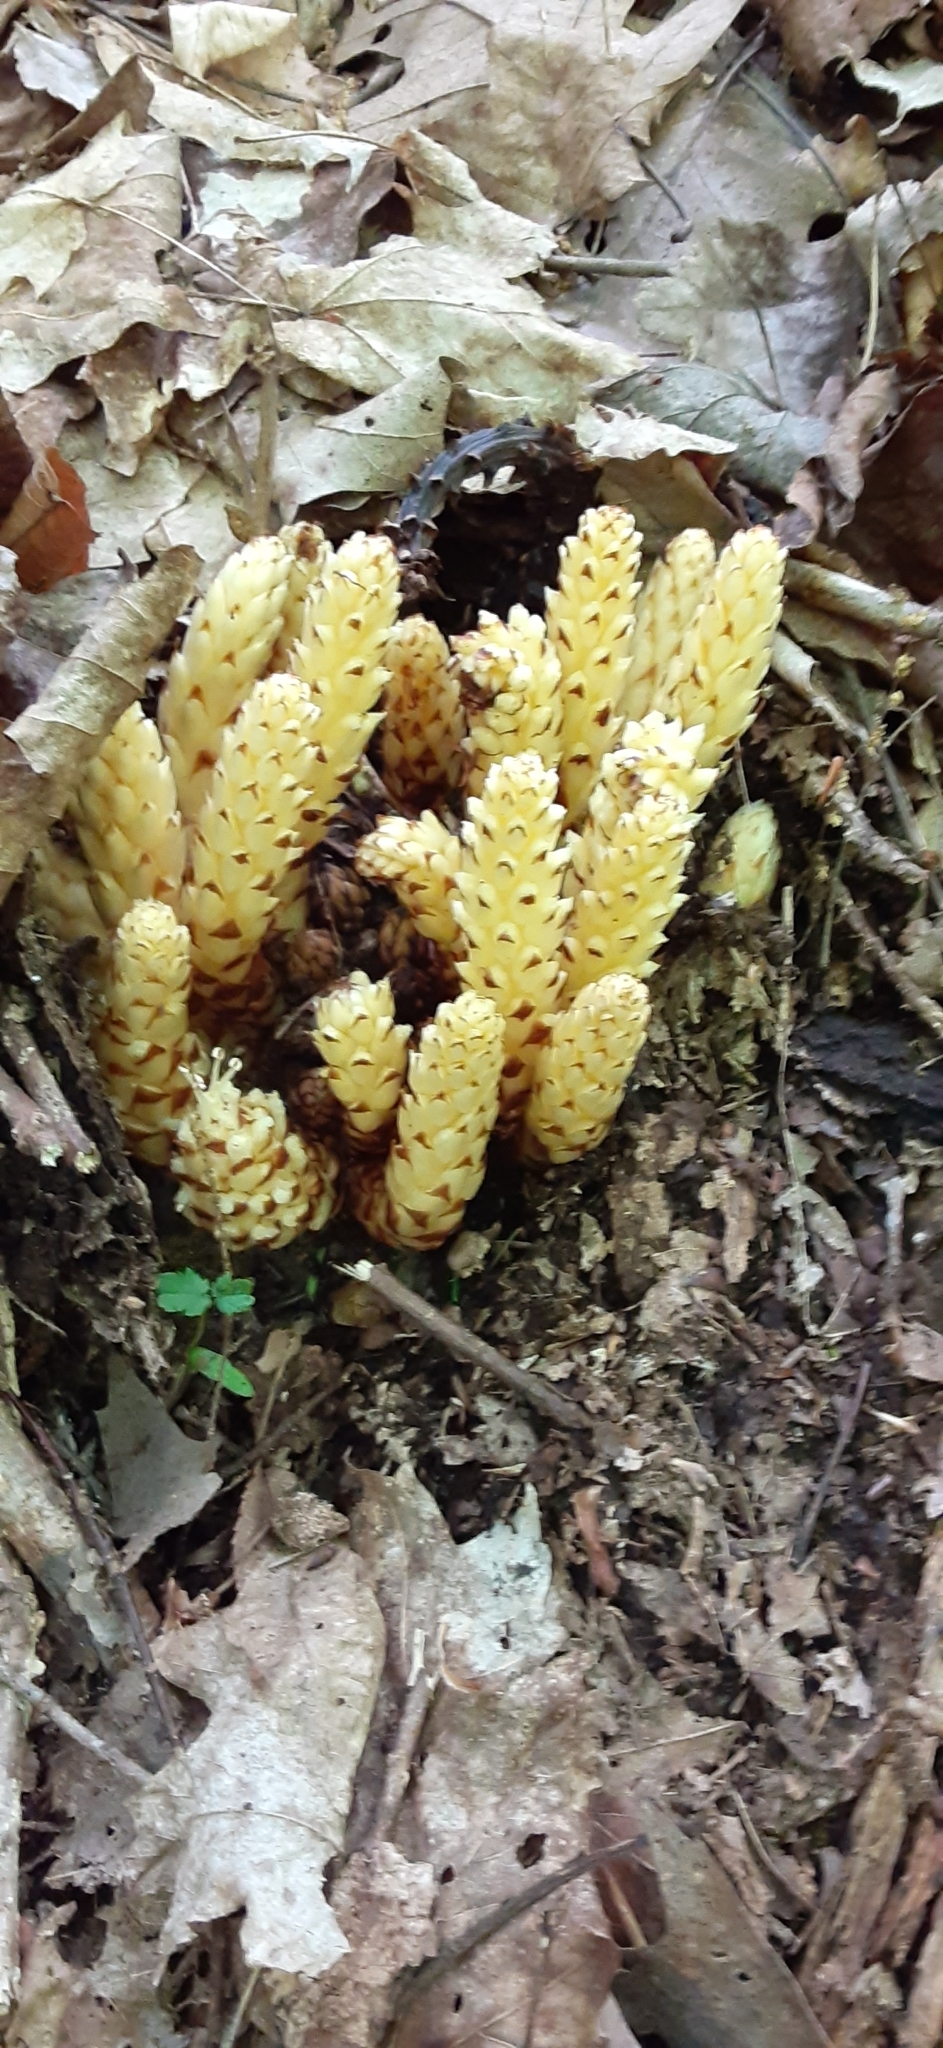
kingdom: Plantae
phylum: Tracheophyta
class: Magnoliopsida
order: Lamiales
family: Orobanchaceae
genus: Conopholis
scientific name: Conopholis americana
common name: American cancer-root
